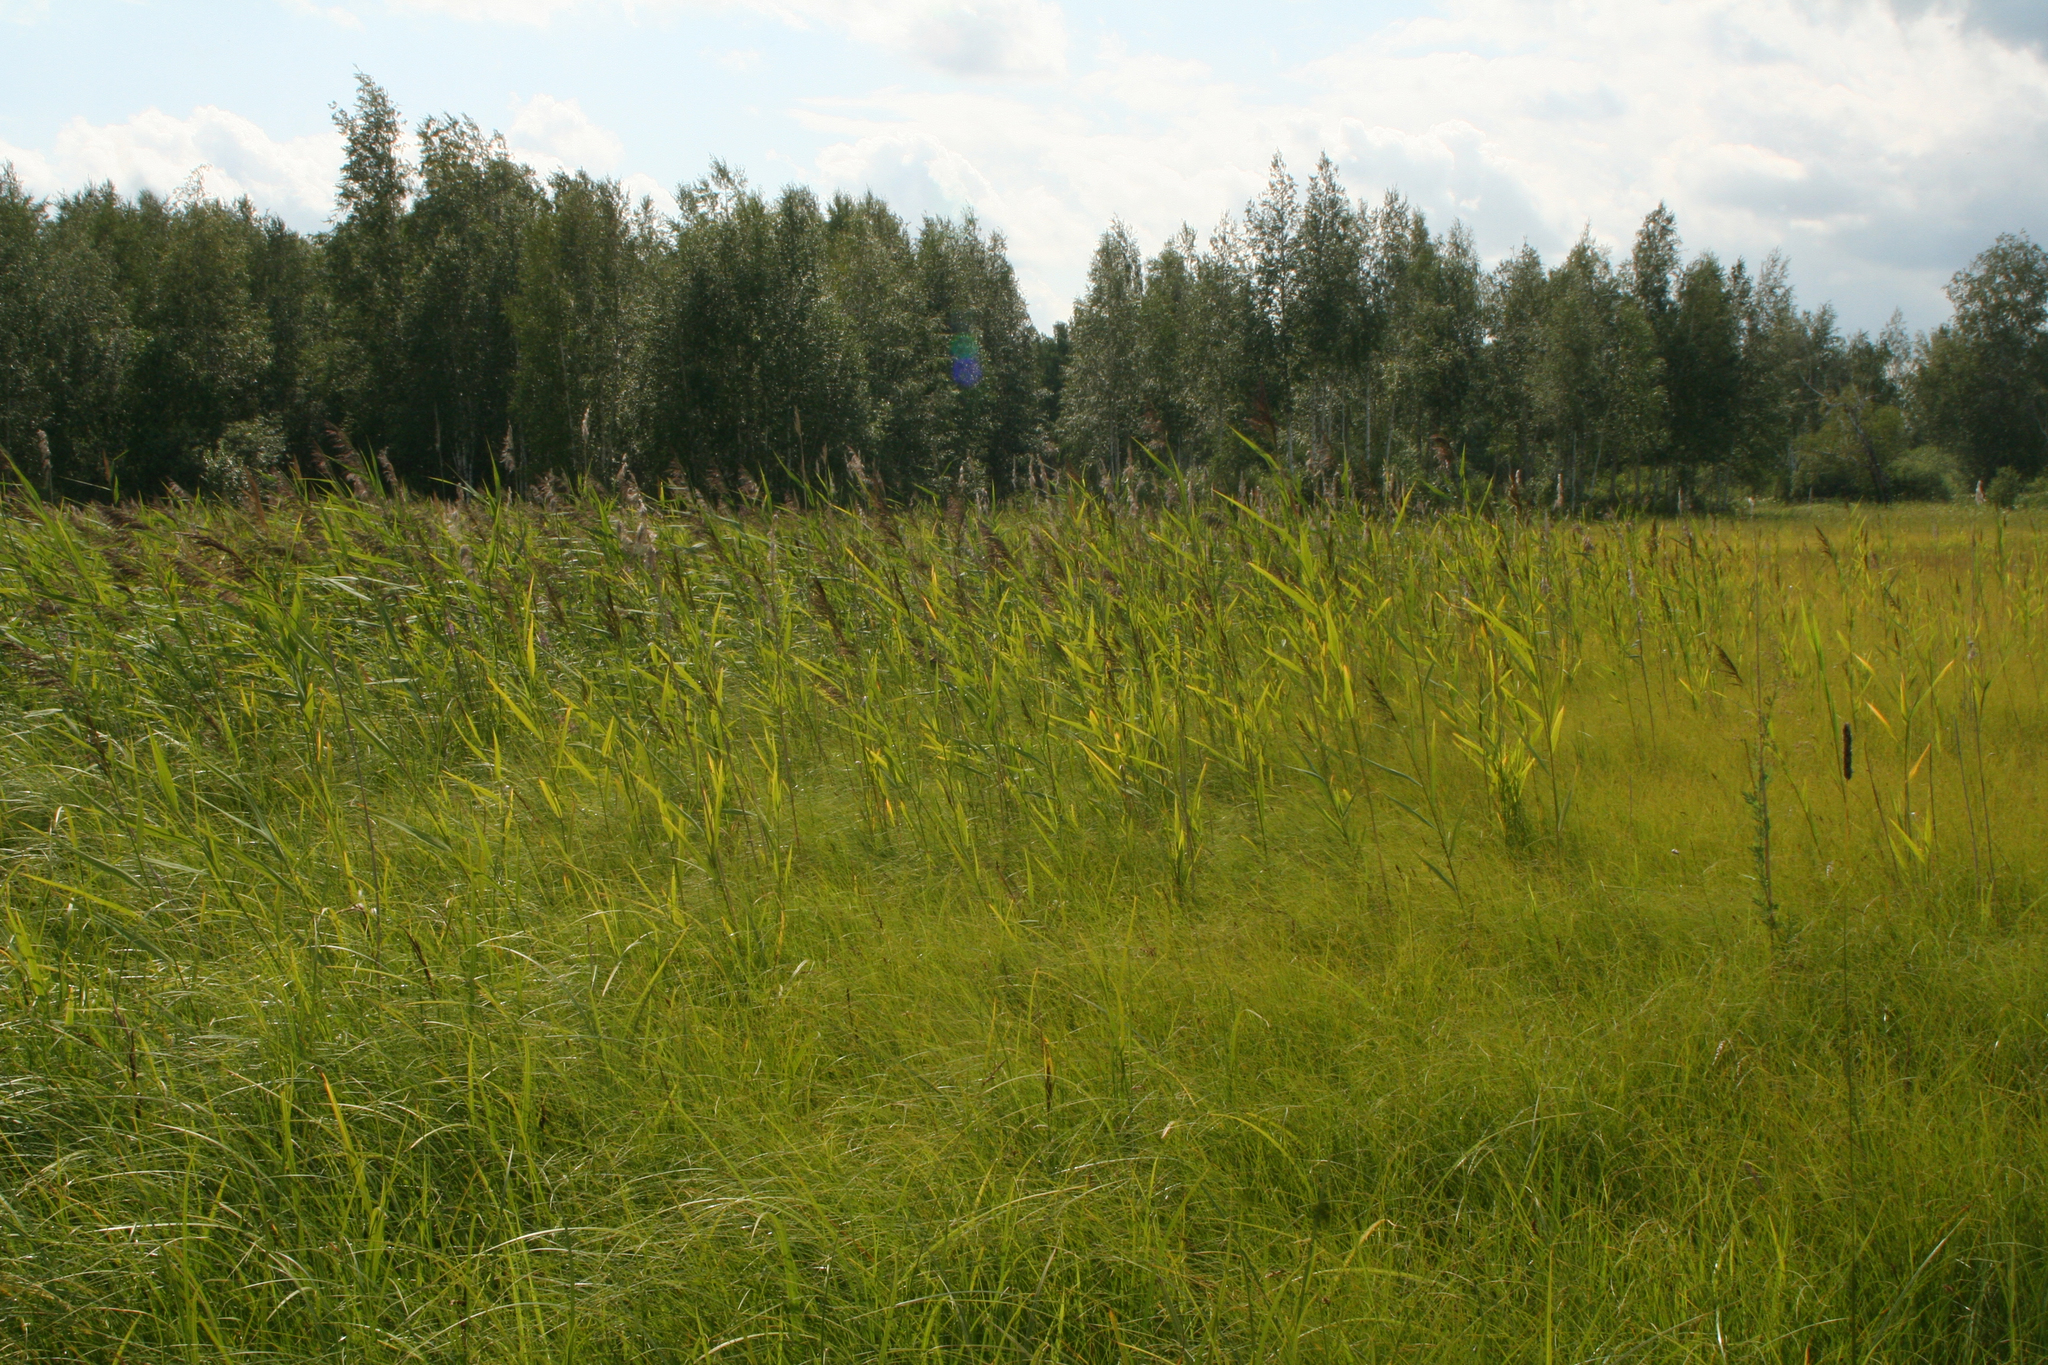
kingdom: Plantae
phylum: Tracheophyta
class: Liliopsida
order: Poales
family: Poaceae
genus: Phragmites
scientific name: Phragmites australis
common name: Common reed
